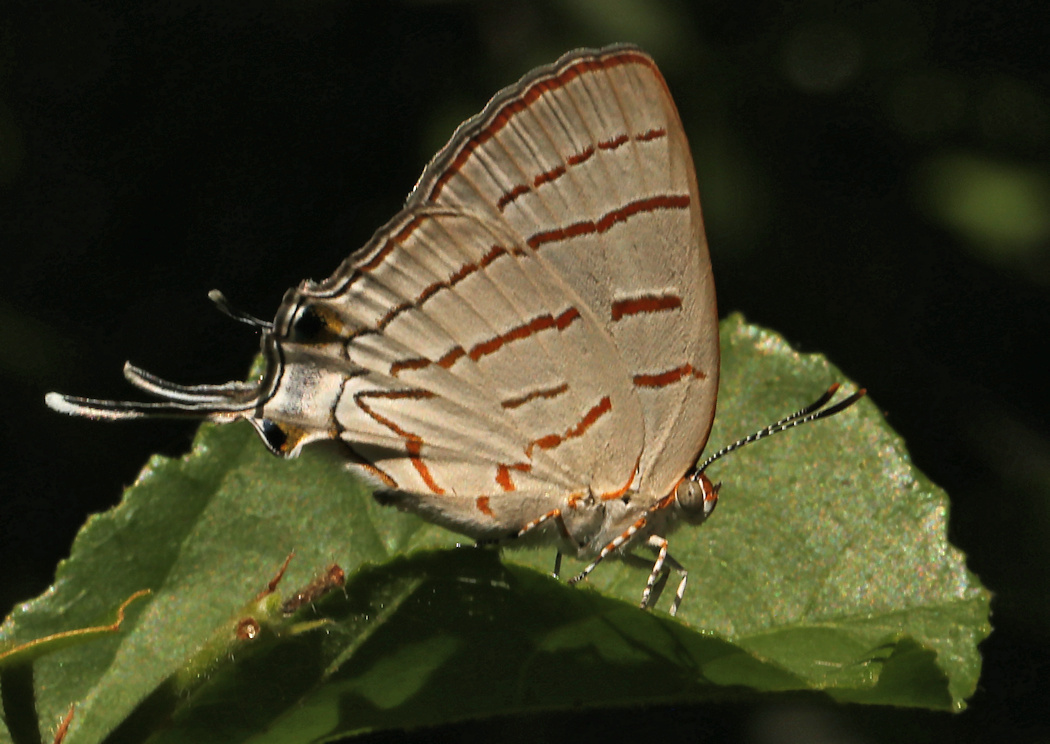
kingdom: Animalia
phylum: Arthropoda
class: Insecta
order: Lepidoptera
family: Lycaenidae
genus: Hemiolaus
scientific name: Hemiolaus caeculus
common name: Azure hairstreak
